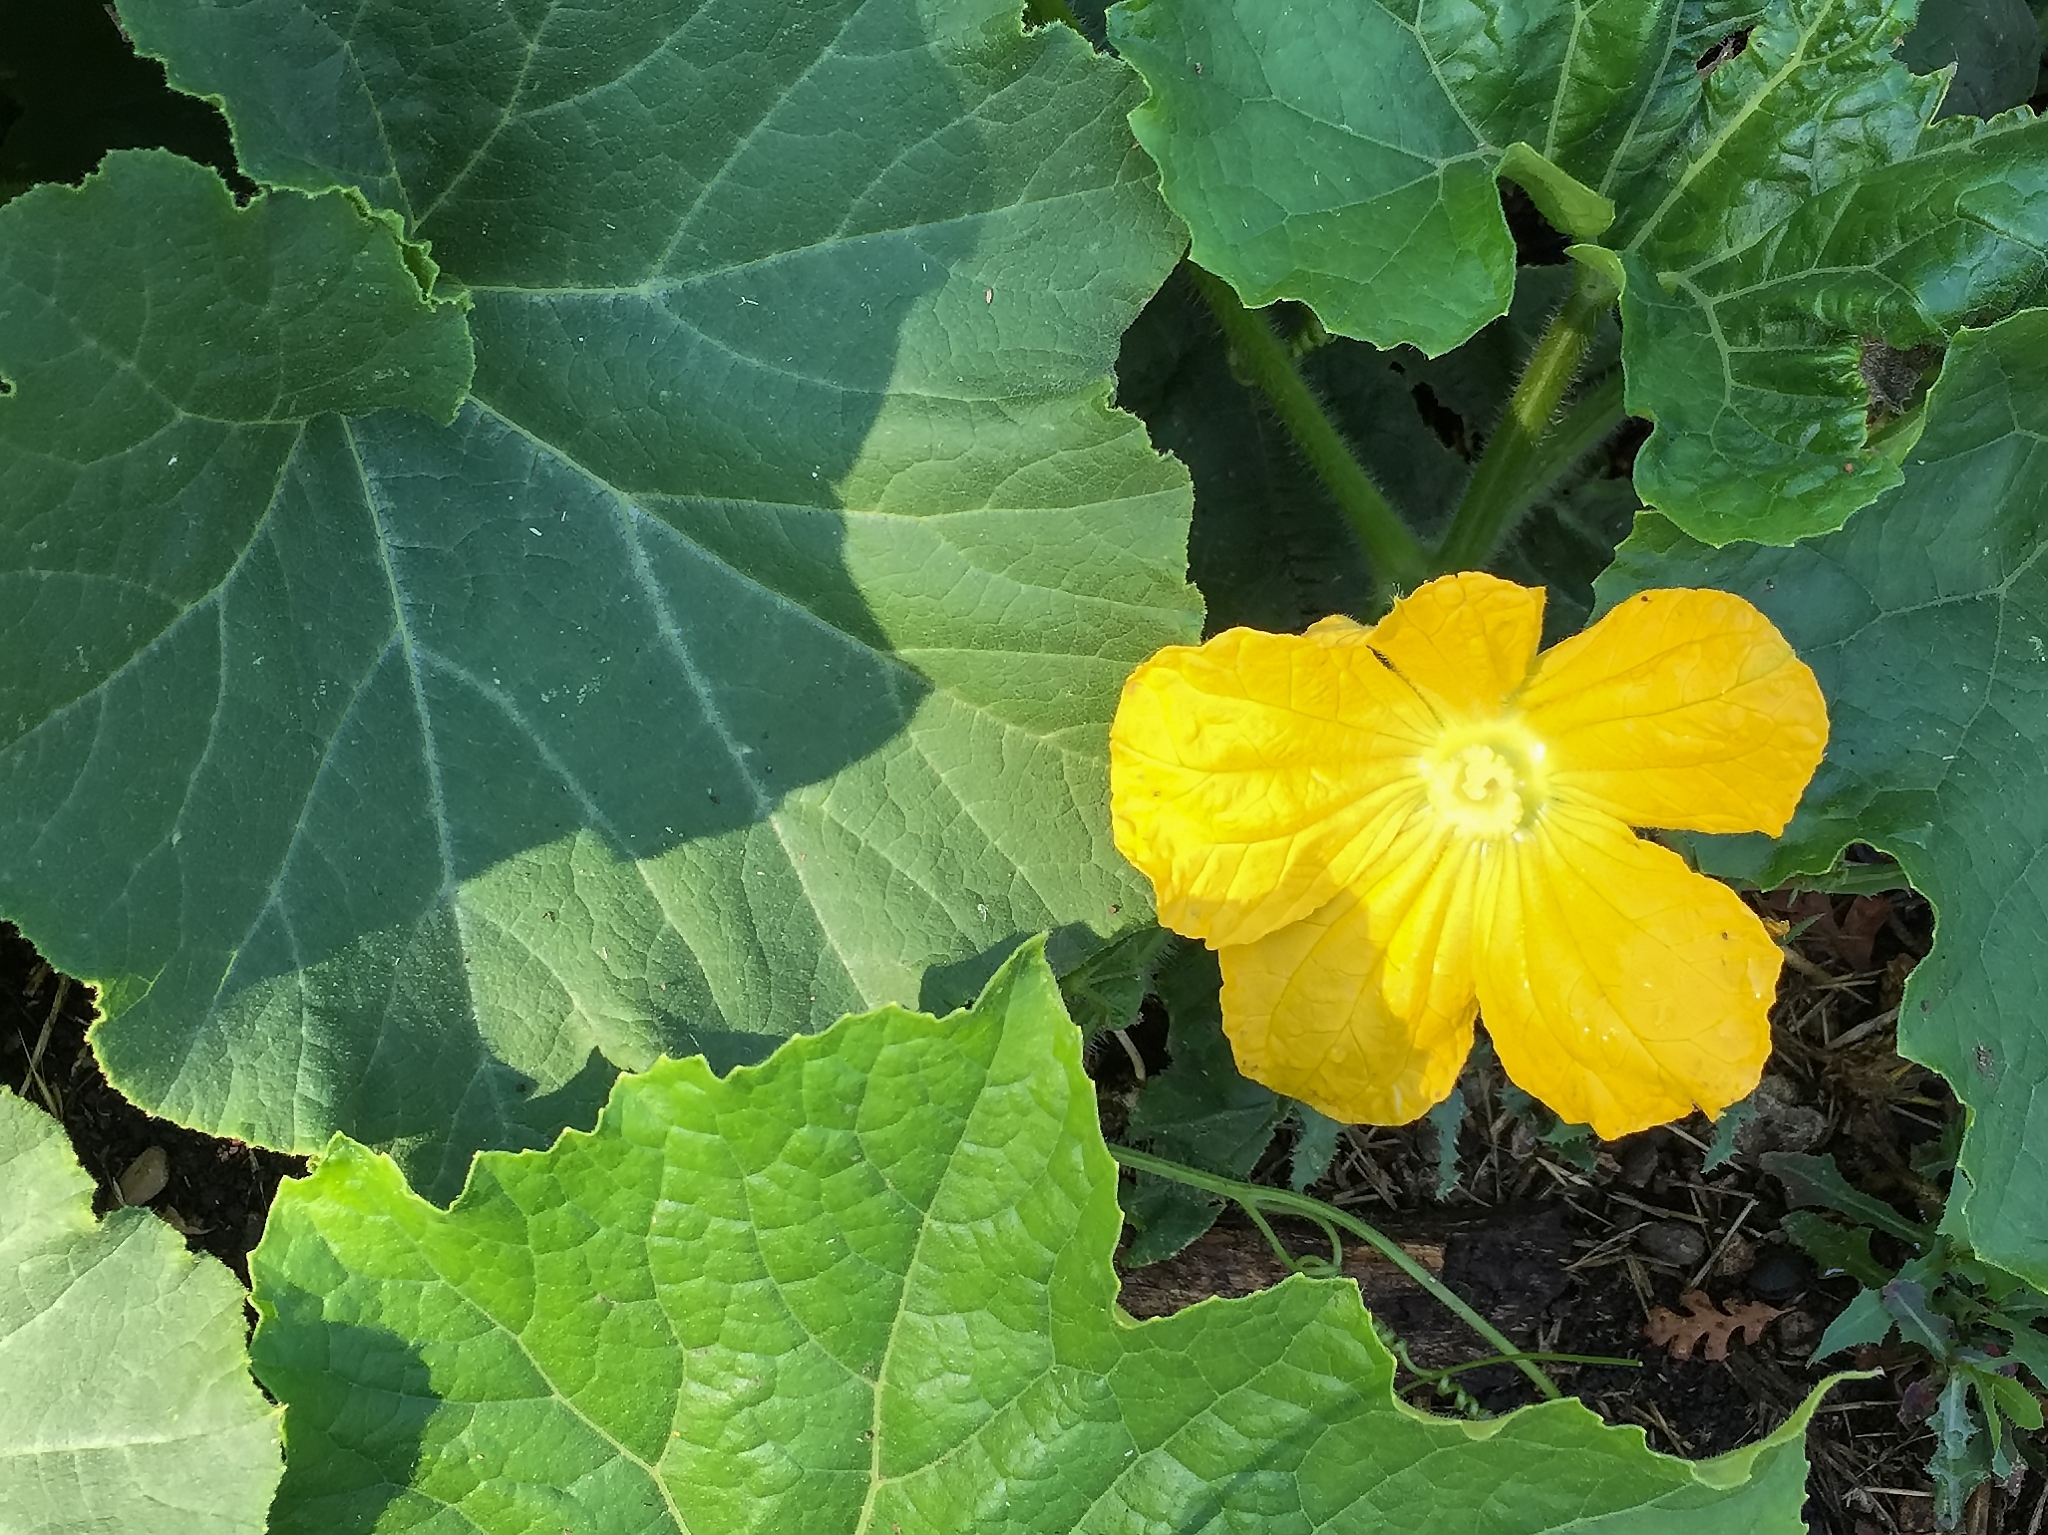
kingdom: Plantae
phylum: Tracheophyta
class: Magnoliopsida
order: Cucurbitales
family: Cucurbitaceae
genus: Benincasa
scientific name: Benincasa hispida
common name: Chinese-watermelon
